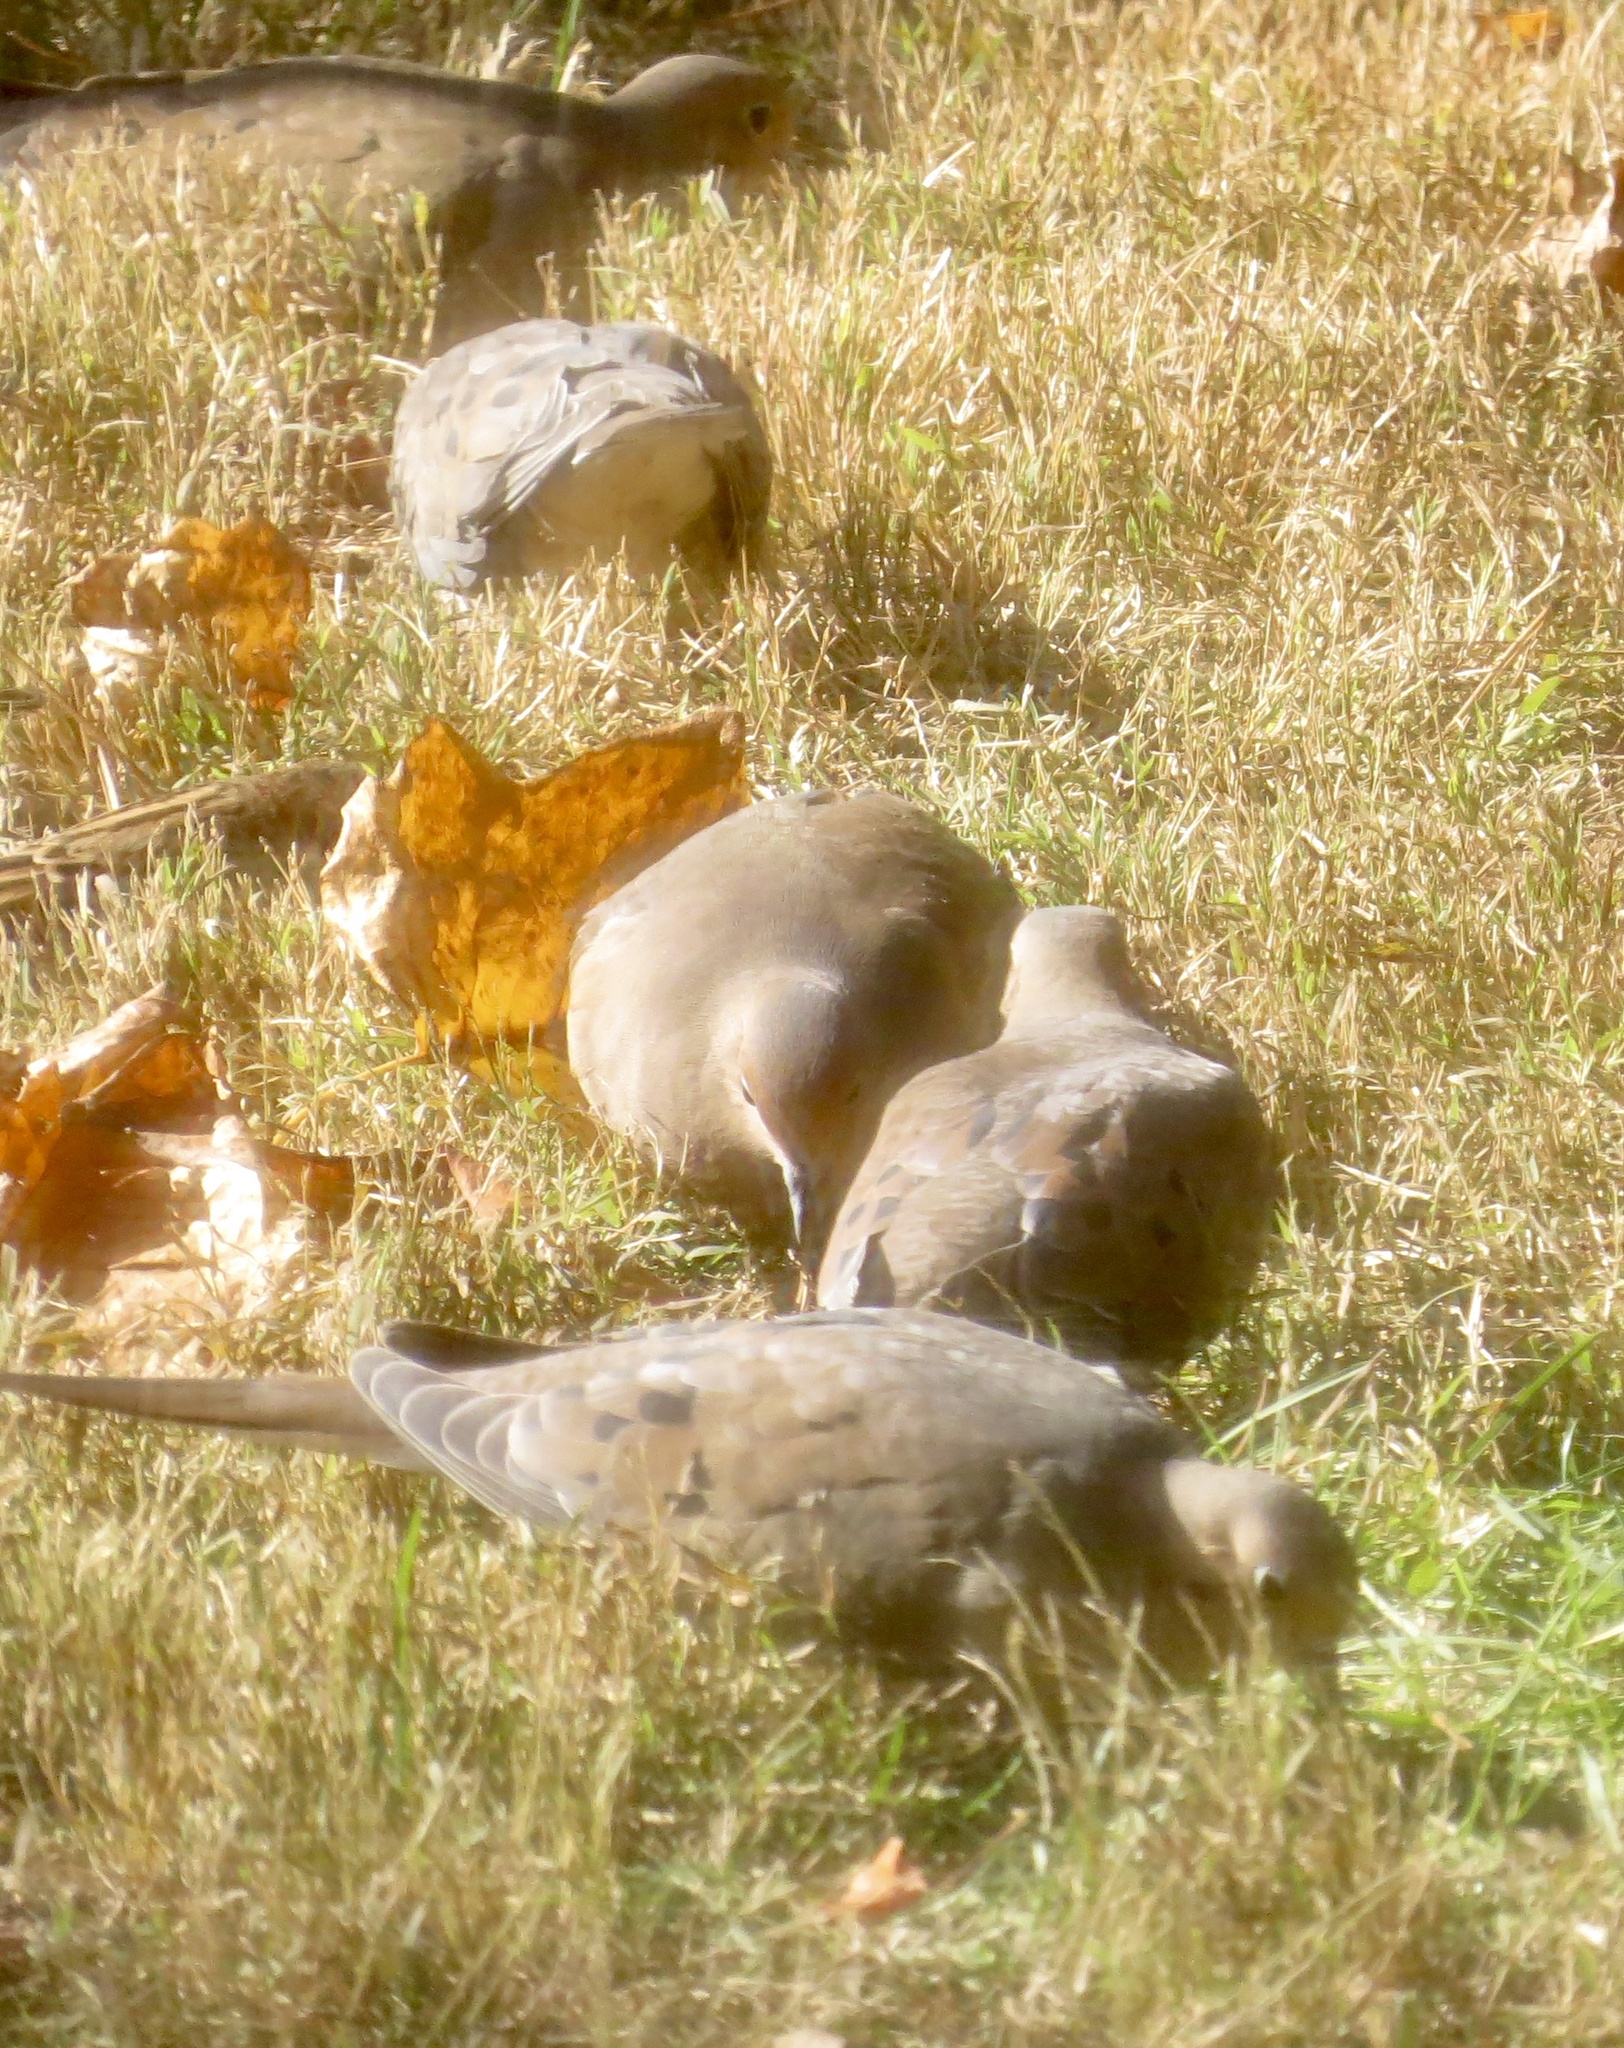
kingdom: Animalia
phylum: Chordata
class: Aves
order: Columbiformes
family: Columbidae
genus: Zenaida
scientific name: Zenaida macroura
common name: Mourning dove
